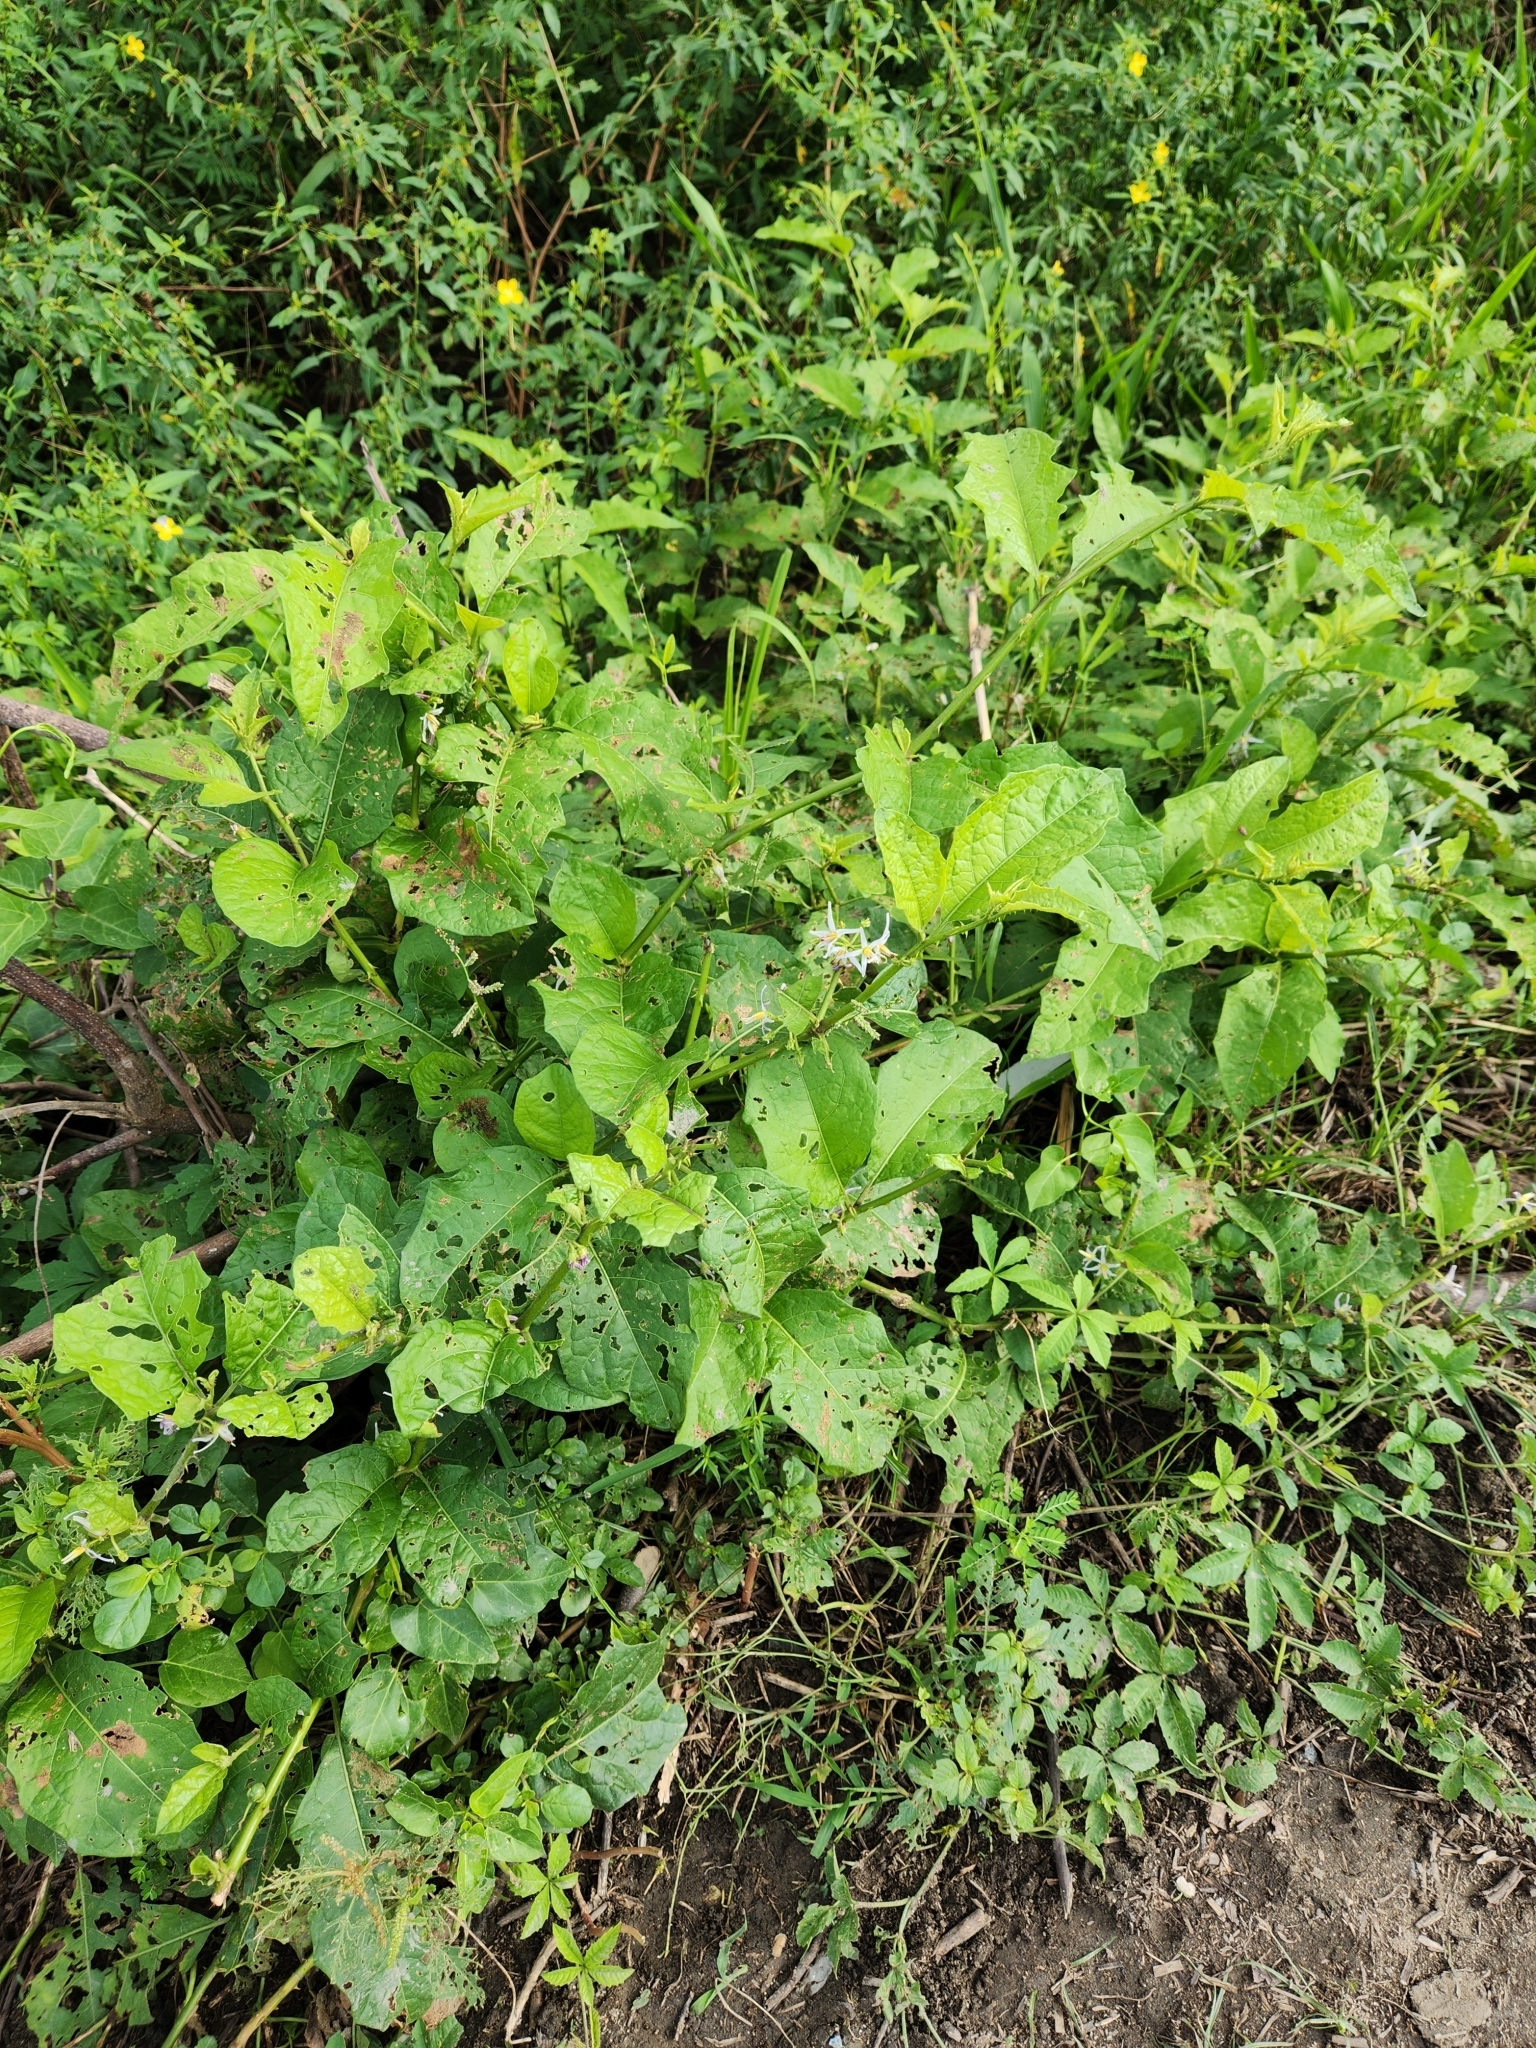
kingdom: Plantae
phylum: Tracheophyta
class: Magnoliopsida
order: Solanales
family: Solanaceae
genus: Solanum
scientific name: Solanum volubile
